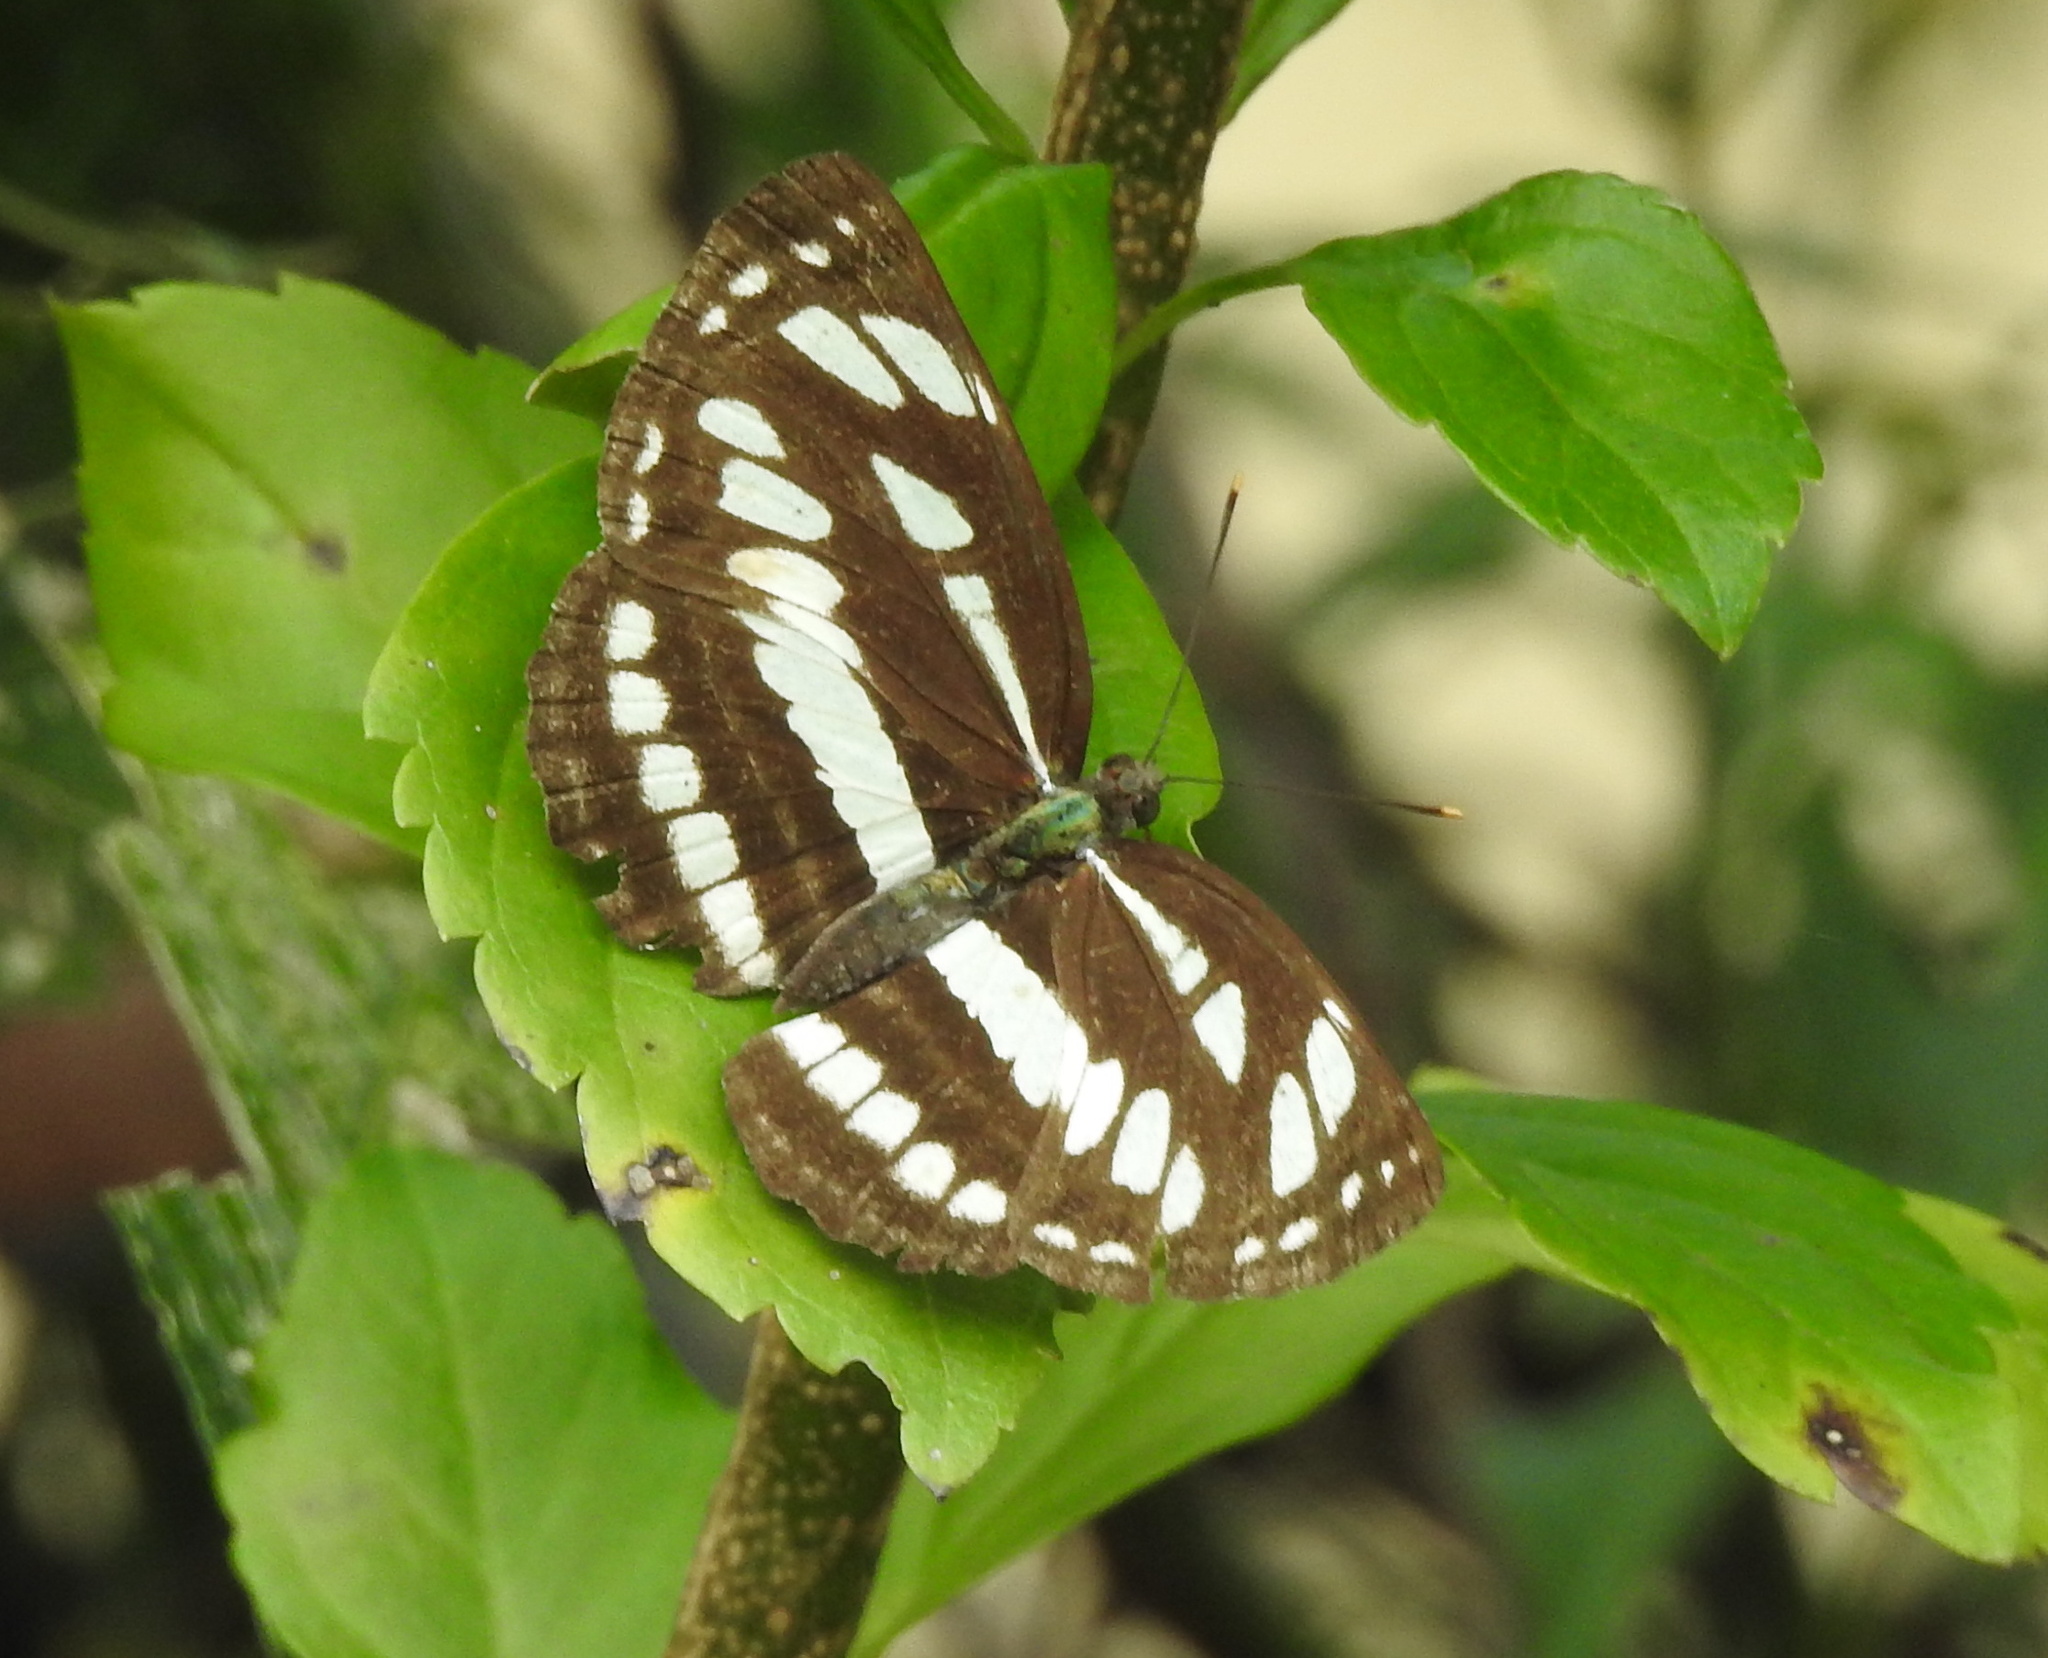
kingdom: Animalia
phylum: Arthropoda
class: Insecta
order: Lepidoptera
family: Nymphalidae
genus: Neptis
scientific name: Neptis hylas
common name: Common sailer
